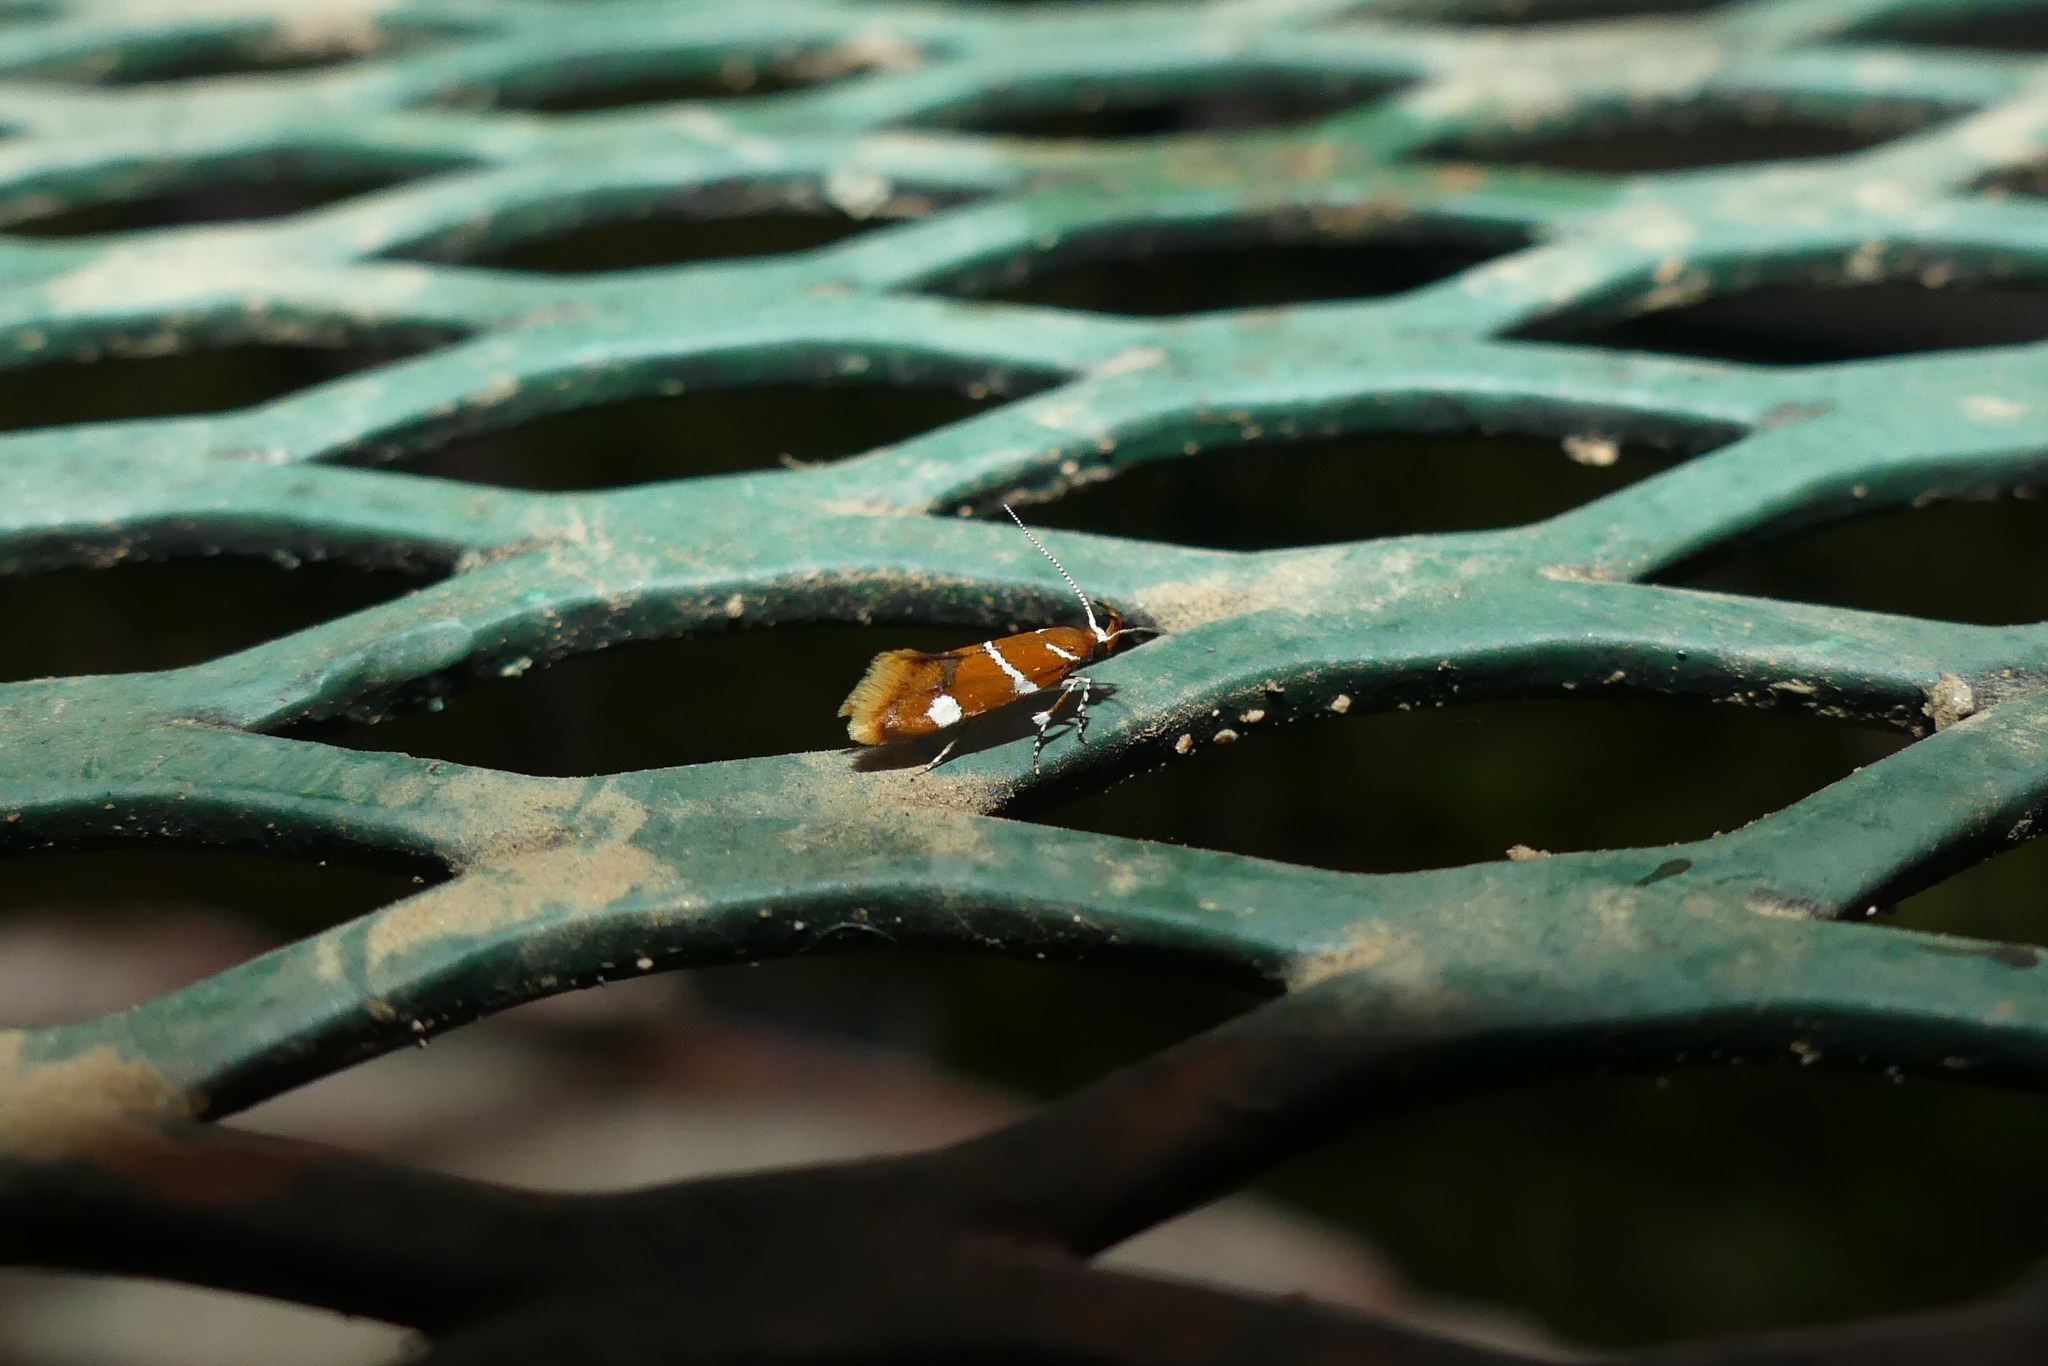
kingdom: Animalia
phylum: Arthropoda
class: Insecta
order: Lepidoptera
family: Oecophoridae
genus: Promalactis
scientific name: Promalactis suzukiella
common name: Moth
